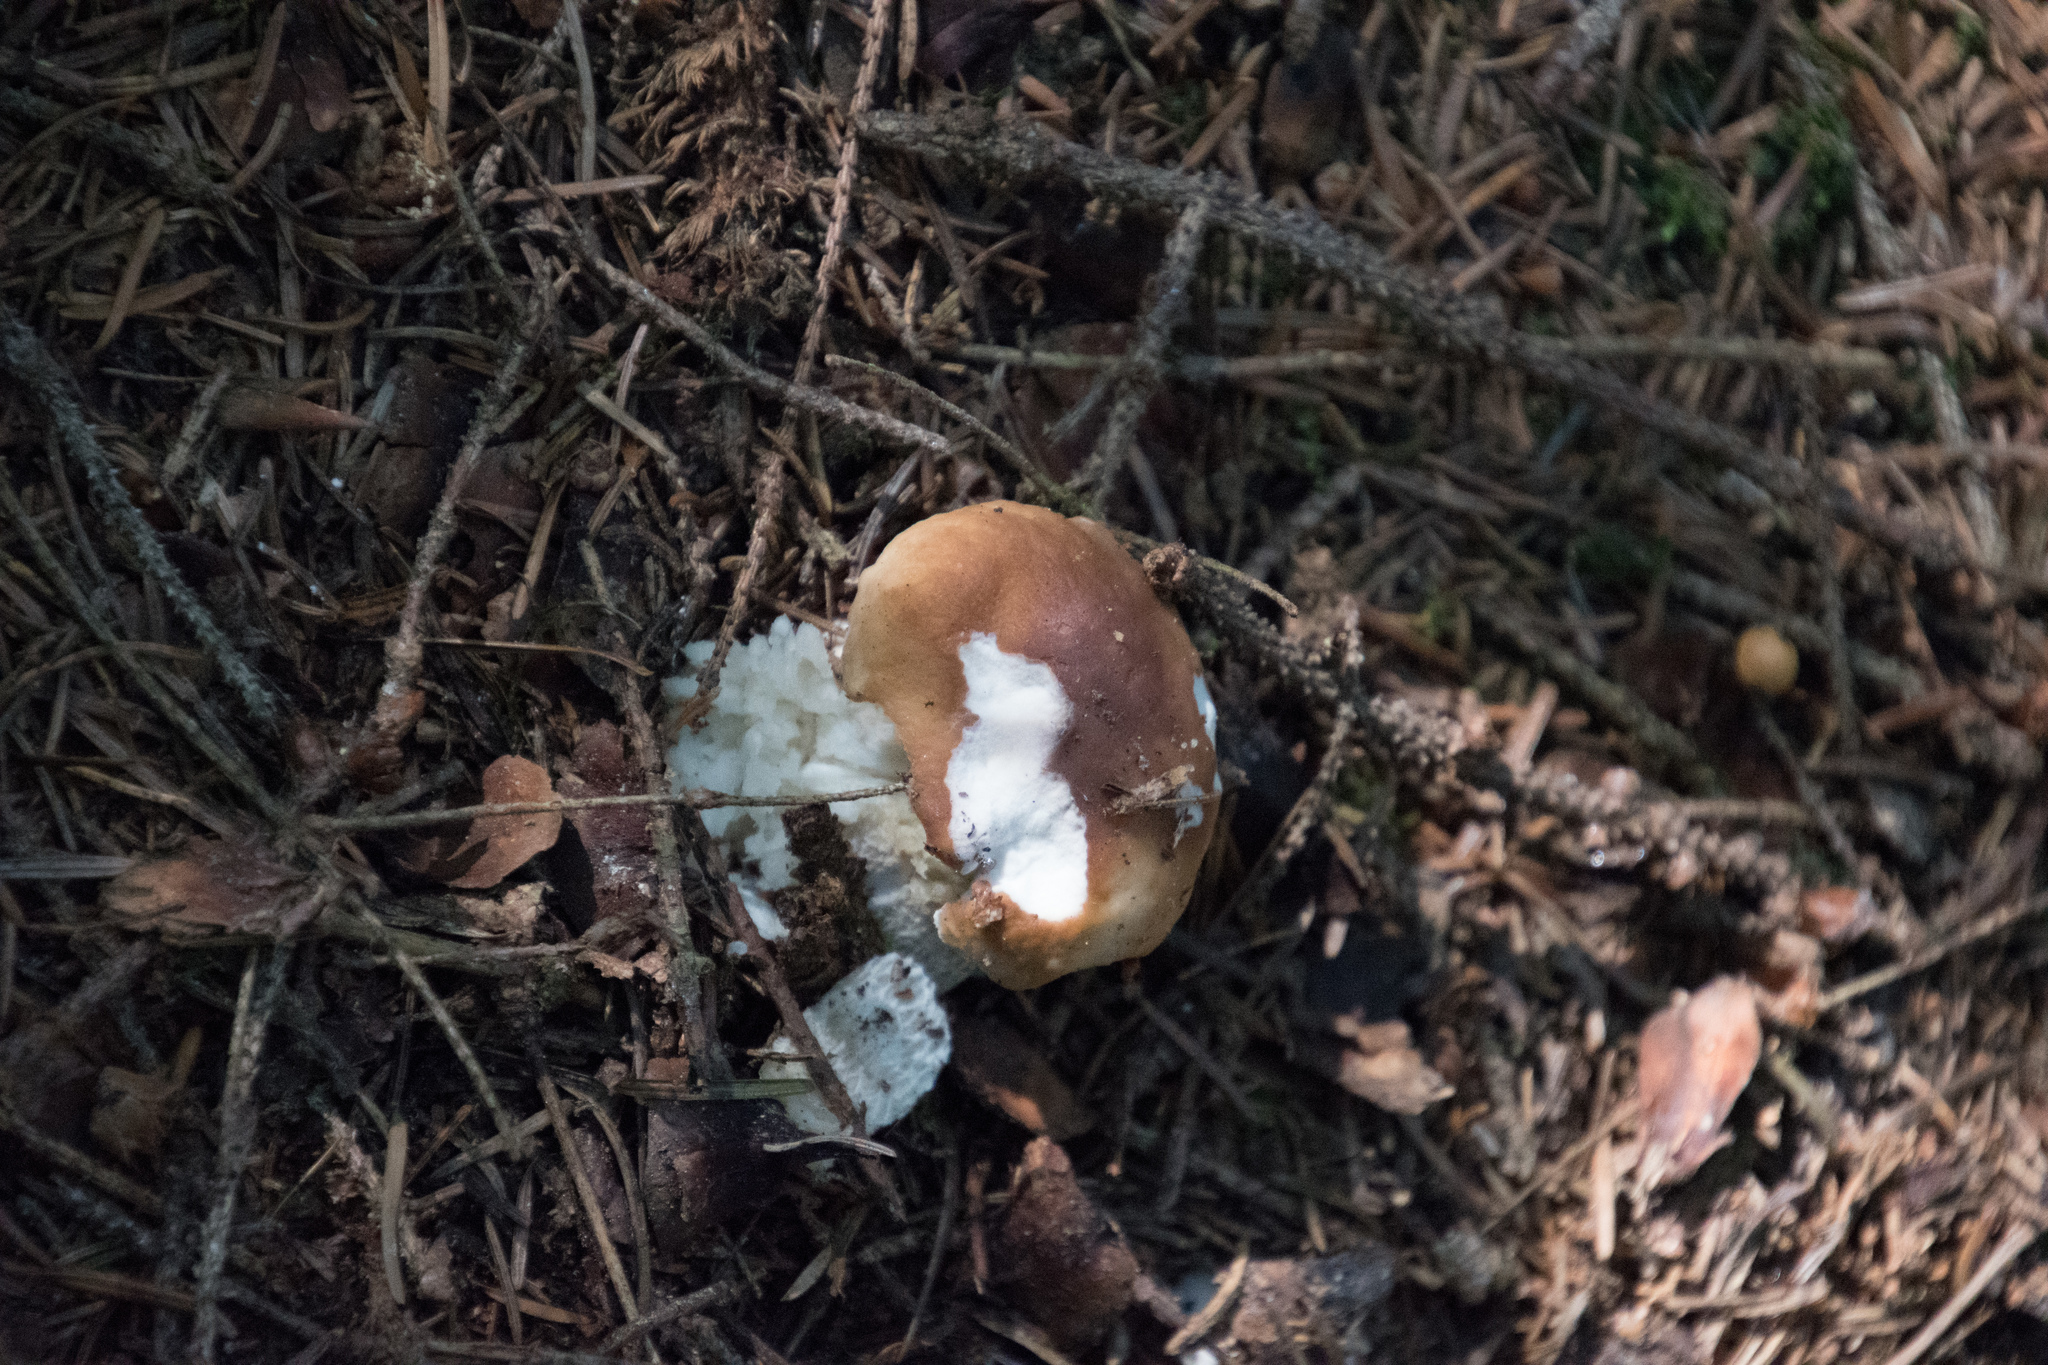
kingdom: Fungi
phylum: Basidiomycota
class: Agaricomycetes
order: Boletales
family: Boletaceae
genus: Boletus
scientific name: Boletus edulis
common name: Cep
